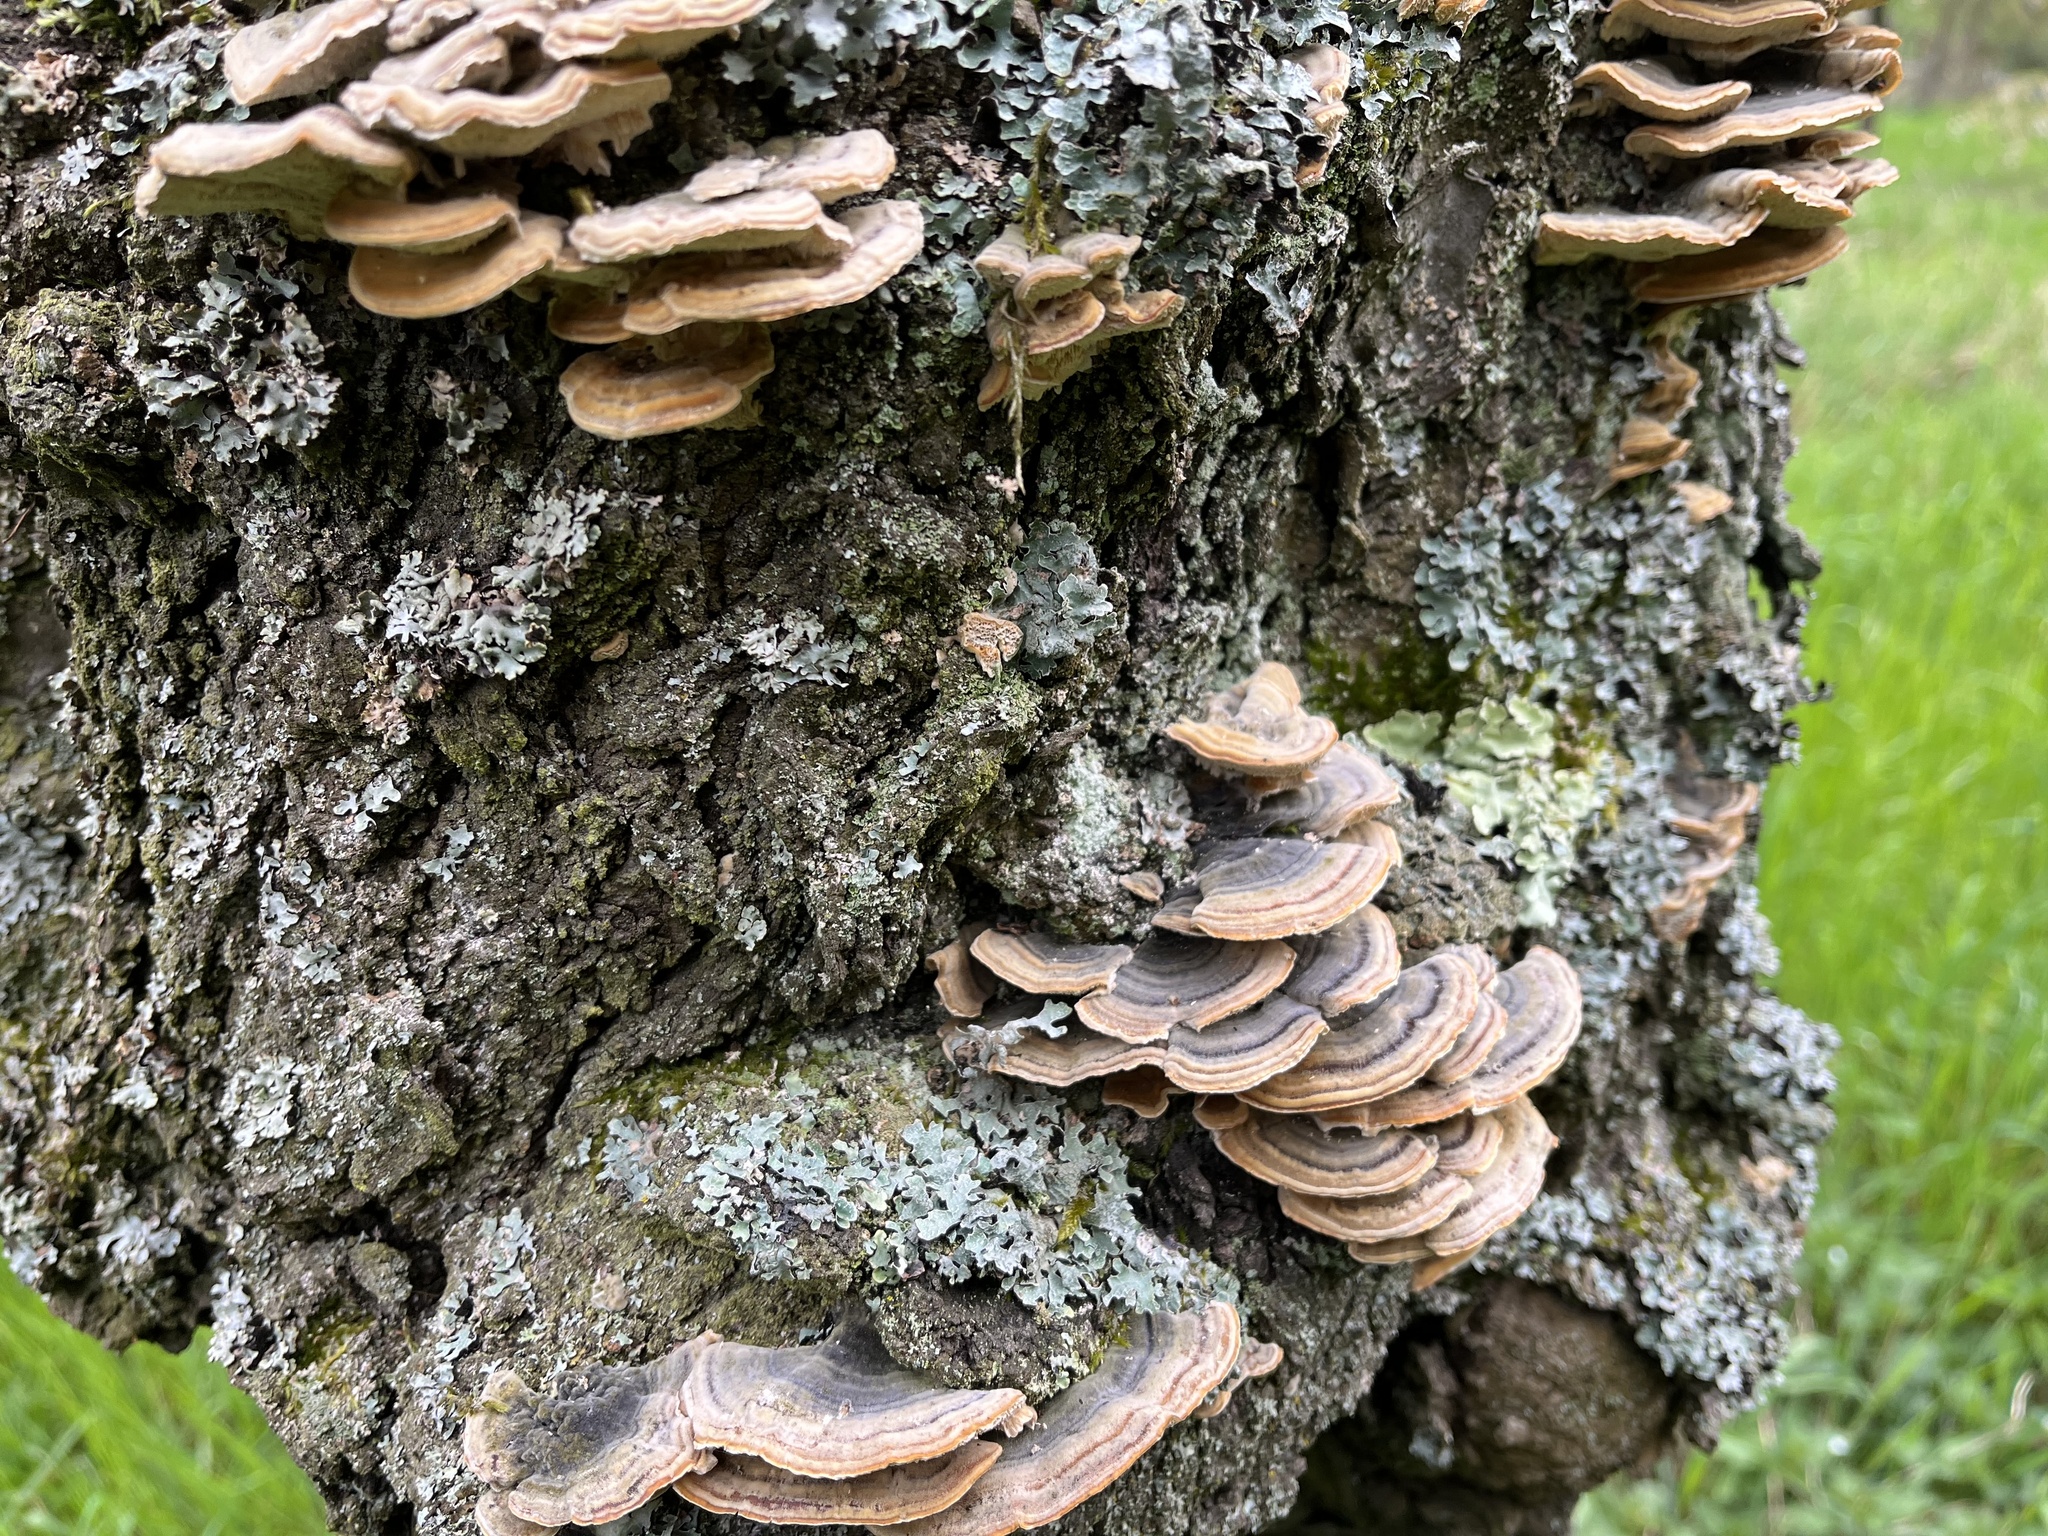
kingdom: Fungi
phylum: Basidiomycota
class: Agaricomycetes
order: Polyporales
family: Polyporaceae
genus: Trametes
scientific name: Trametes versicolor
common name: Turkeytail
